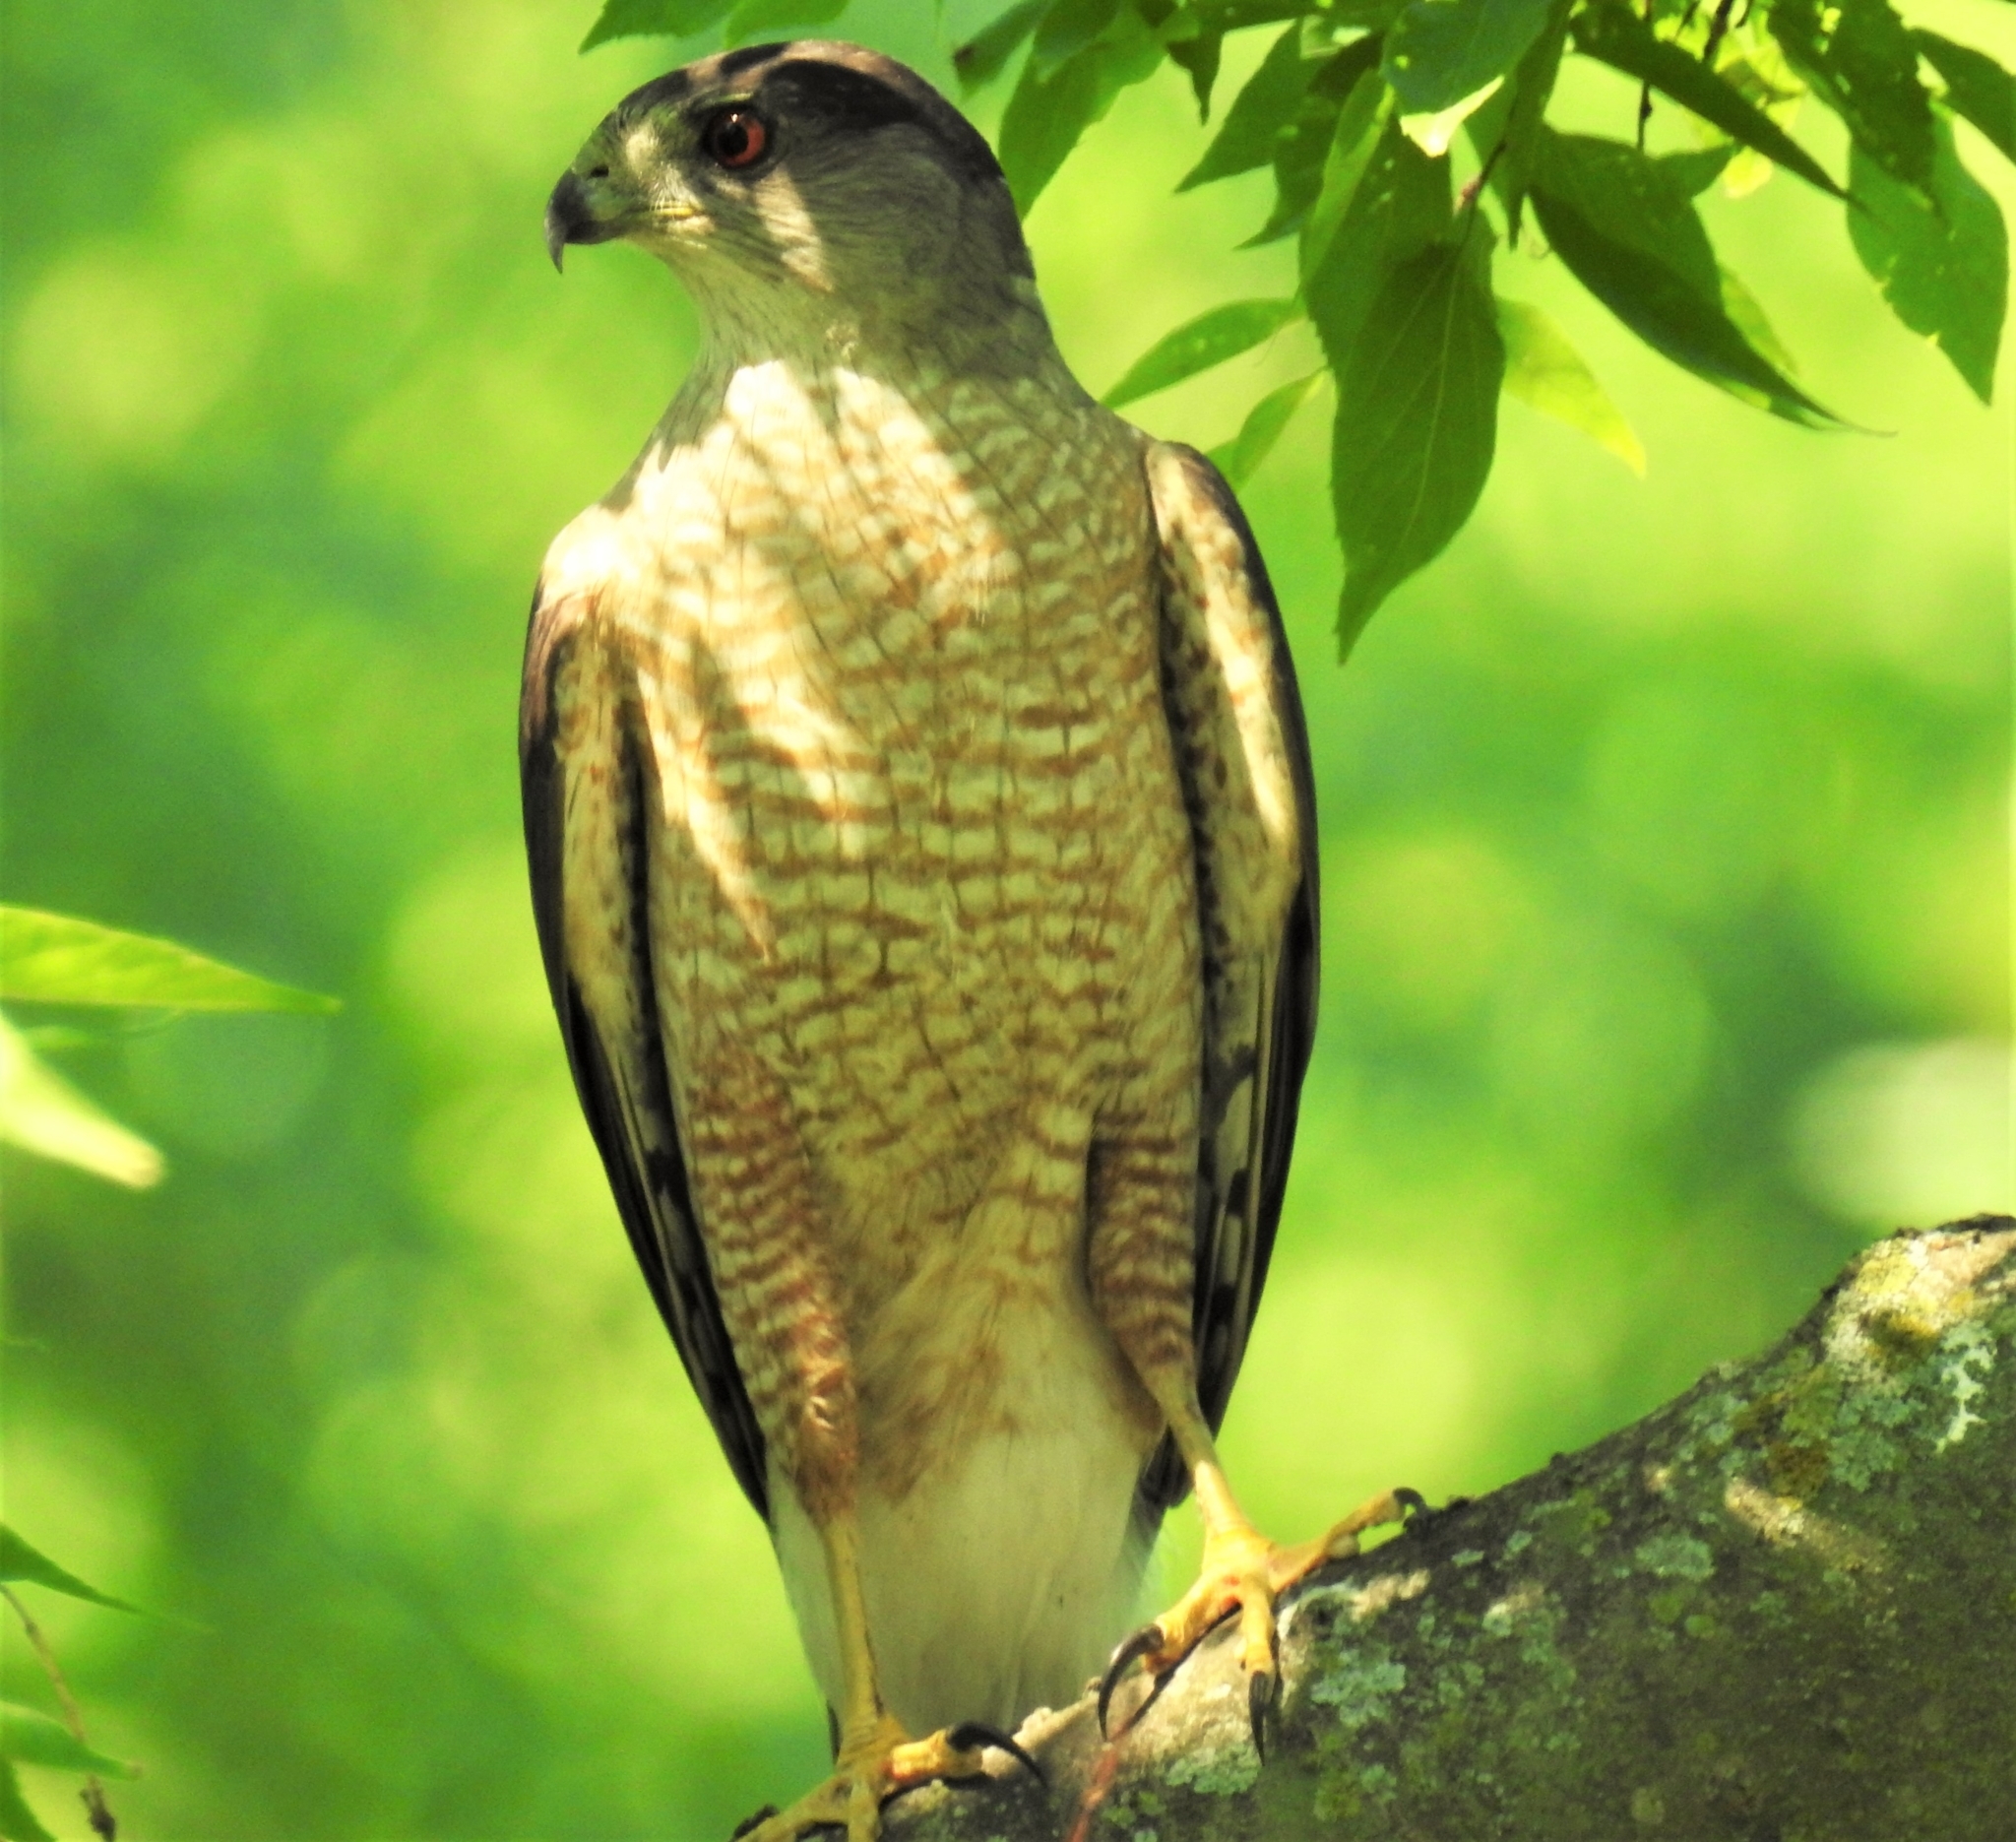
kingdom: Animalia
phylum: Chordata
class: Aves
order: Accipitriformes
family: Accipitridae
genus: Accipiter
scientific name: Accipiter cooperii
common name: Cooper's hawk
